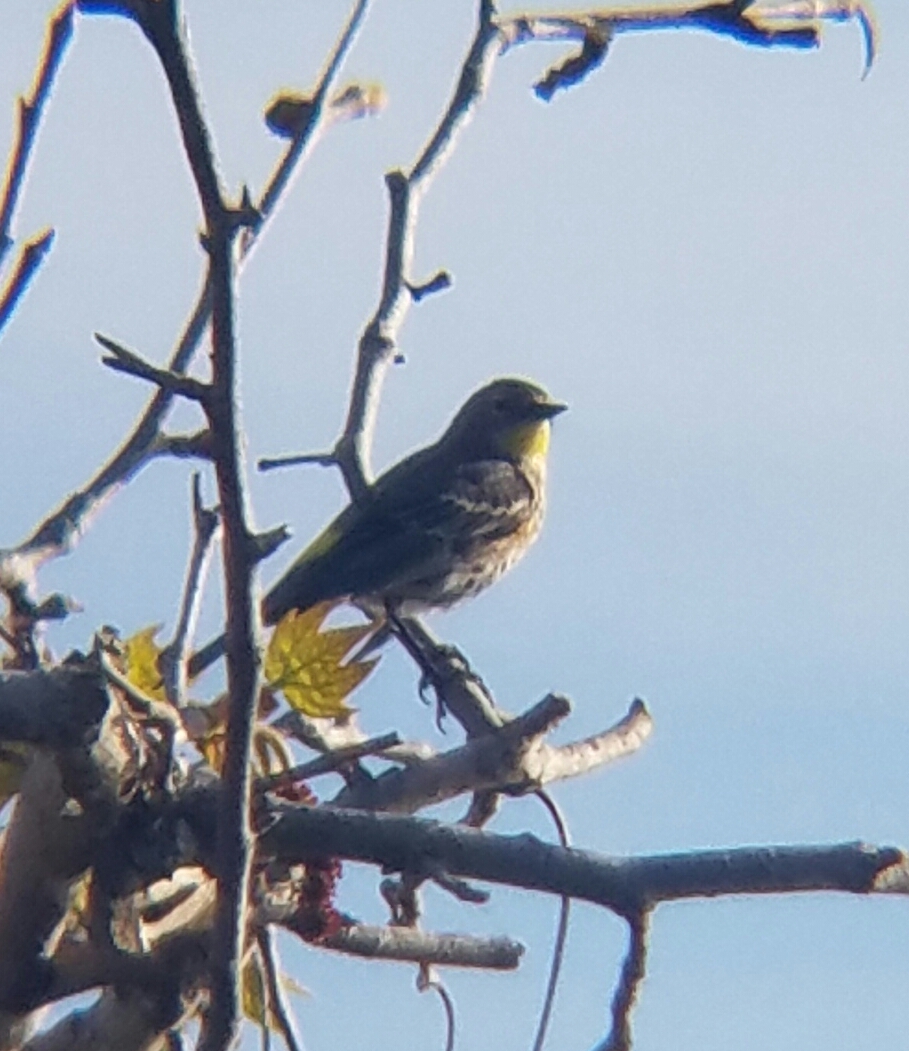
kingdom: Animalia
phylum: Chordata
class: Aves
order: Passeriformes
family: Parulidae
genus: Setophaga
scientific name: Setophaga coronata
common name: Myrtle warbler
